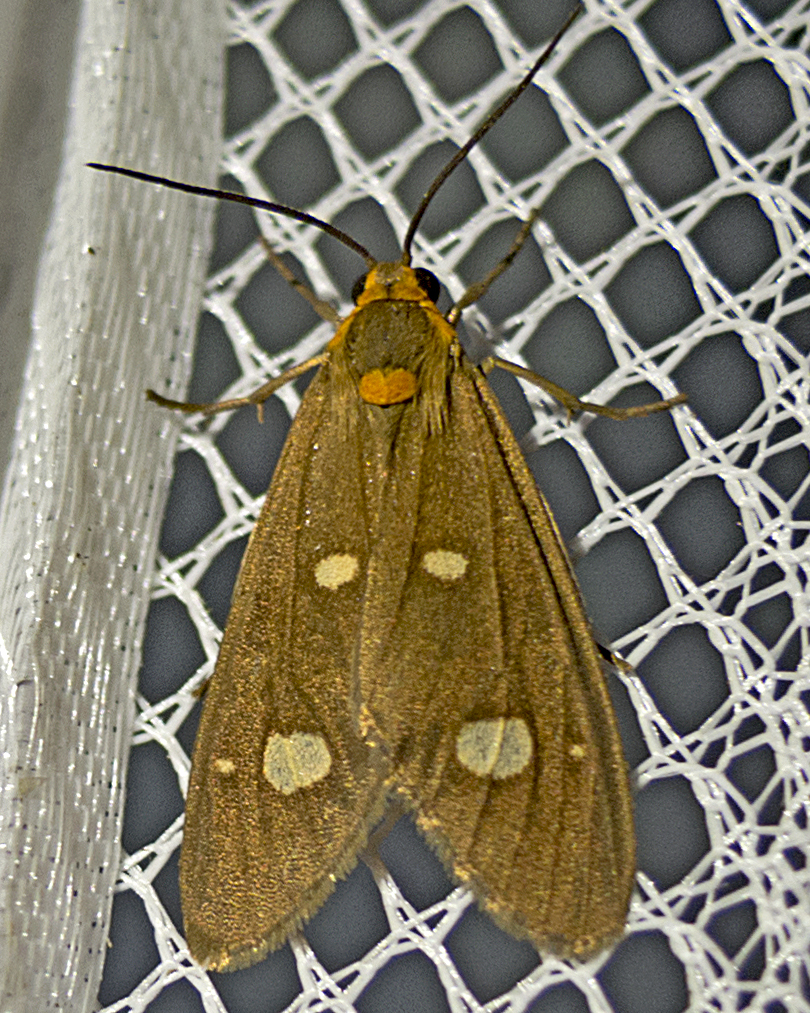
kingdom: Animalia
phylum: Arthropoda
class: Insecta
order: Lepidoptera
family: Erebidae
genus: Dysauxes
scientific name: Dysauxes punctata
